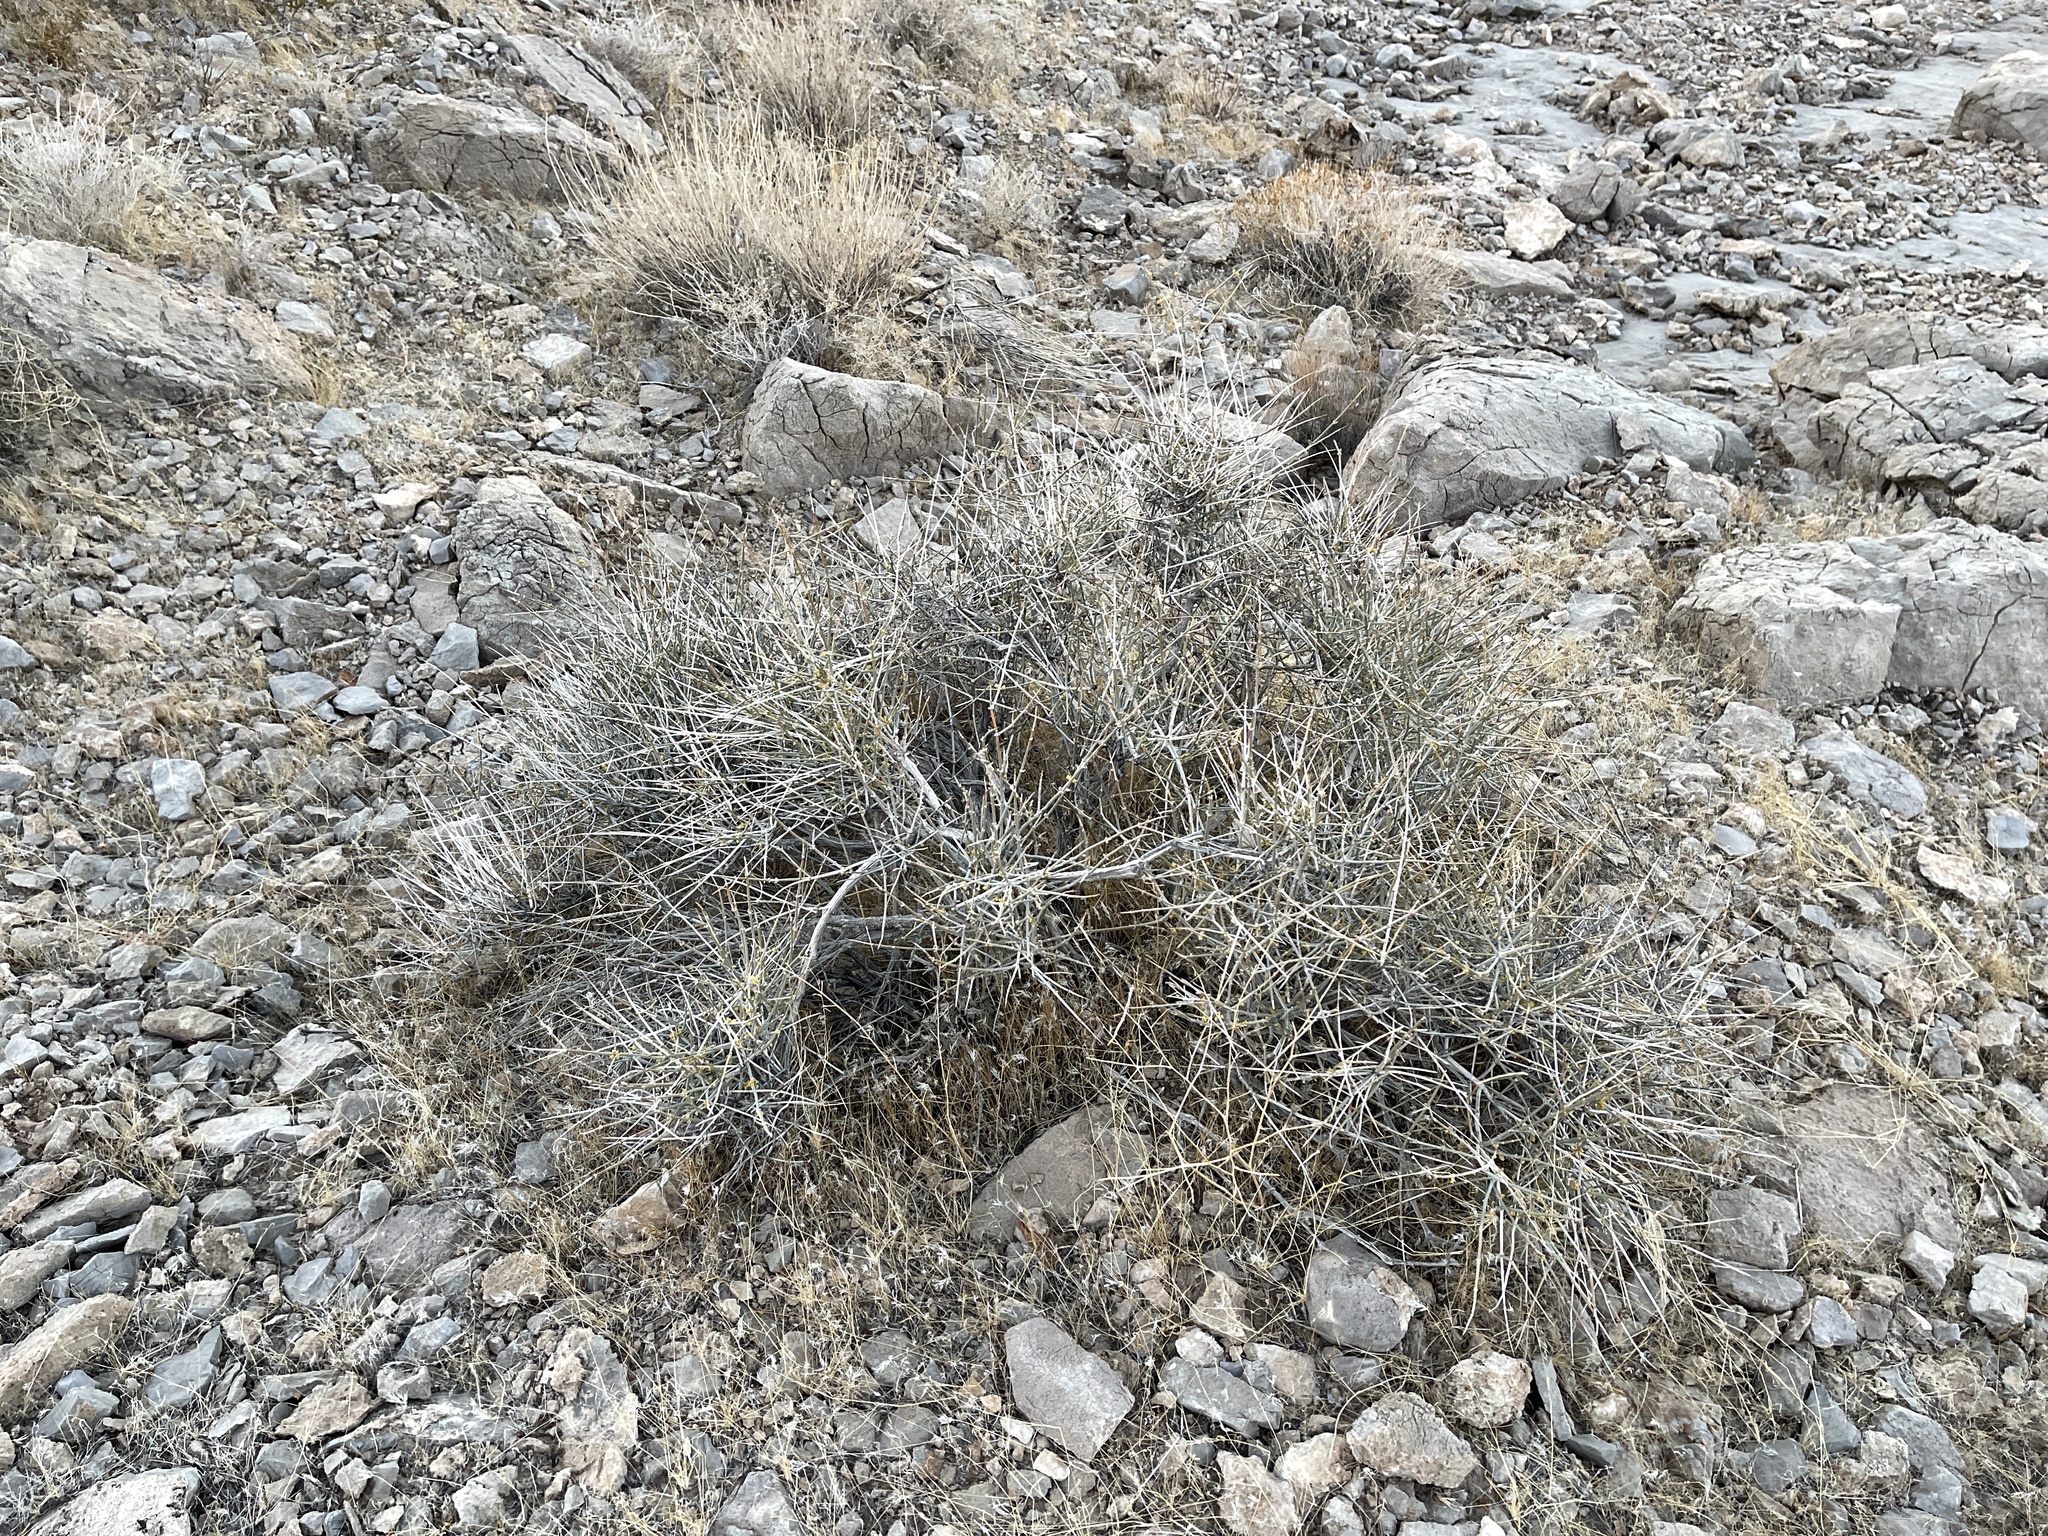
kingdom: Plantae
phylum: Tracheophyta
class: Gnetopsida
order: Ephedrales
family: Ephedraceae
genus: Ephedra
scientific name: Ephedra nevadensis
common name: Gray ephedra
